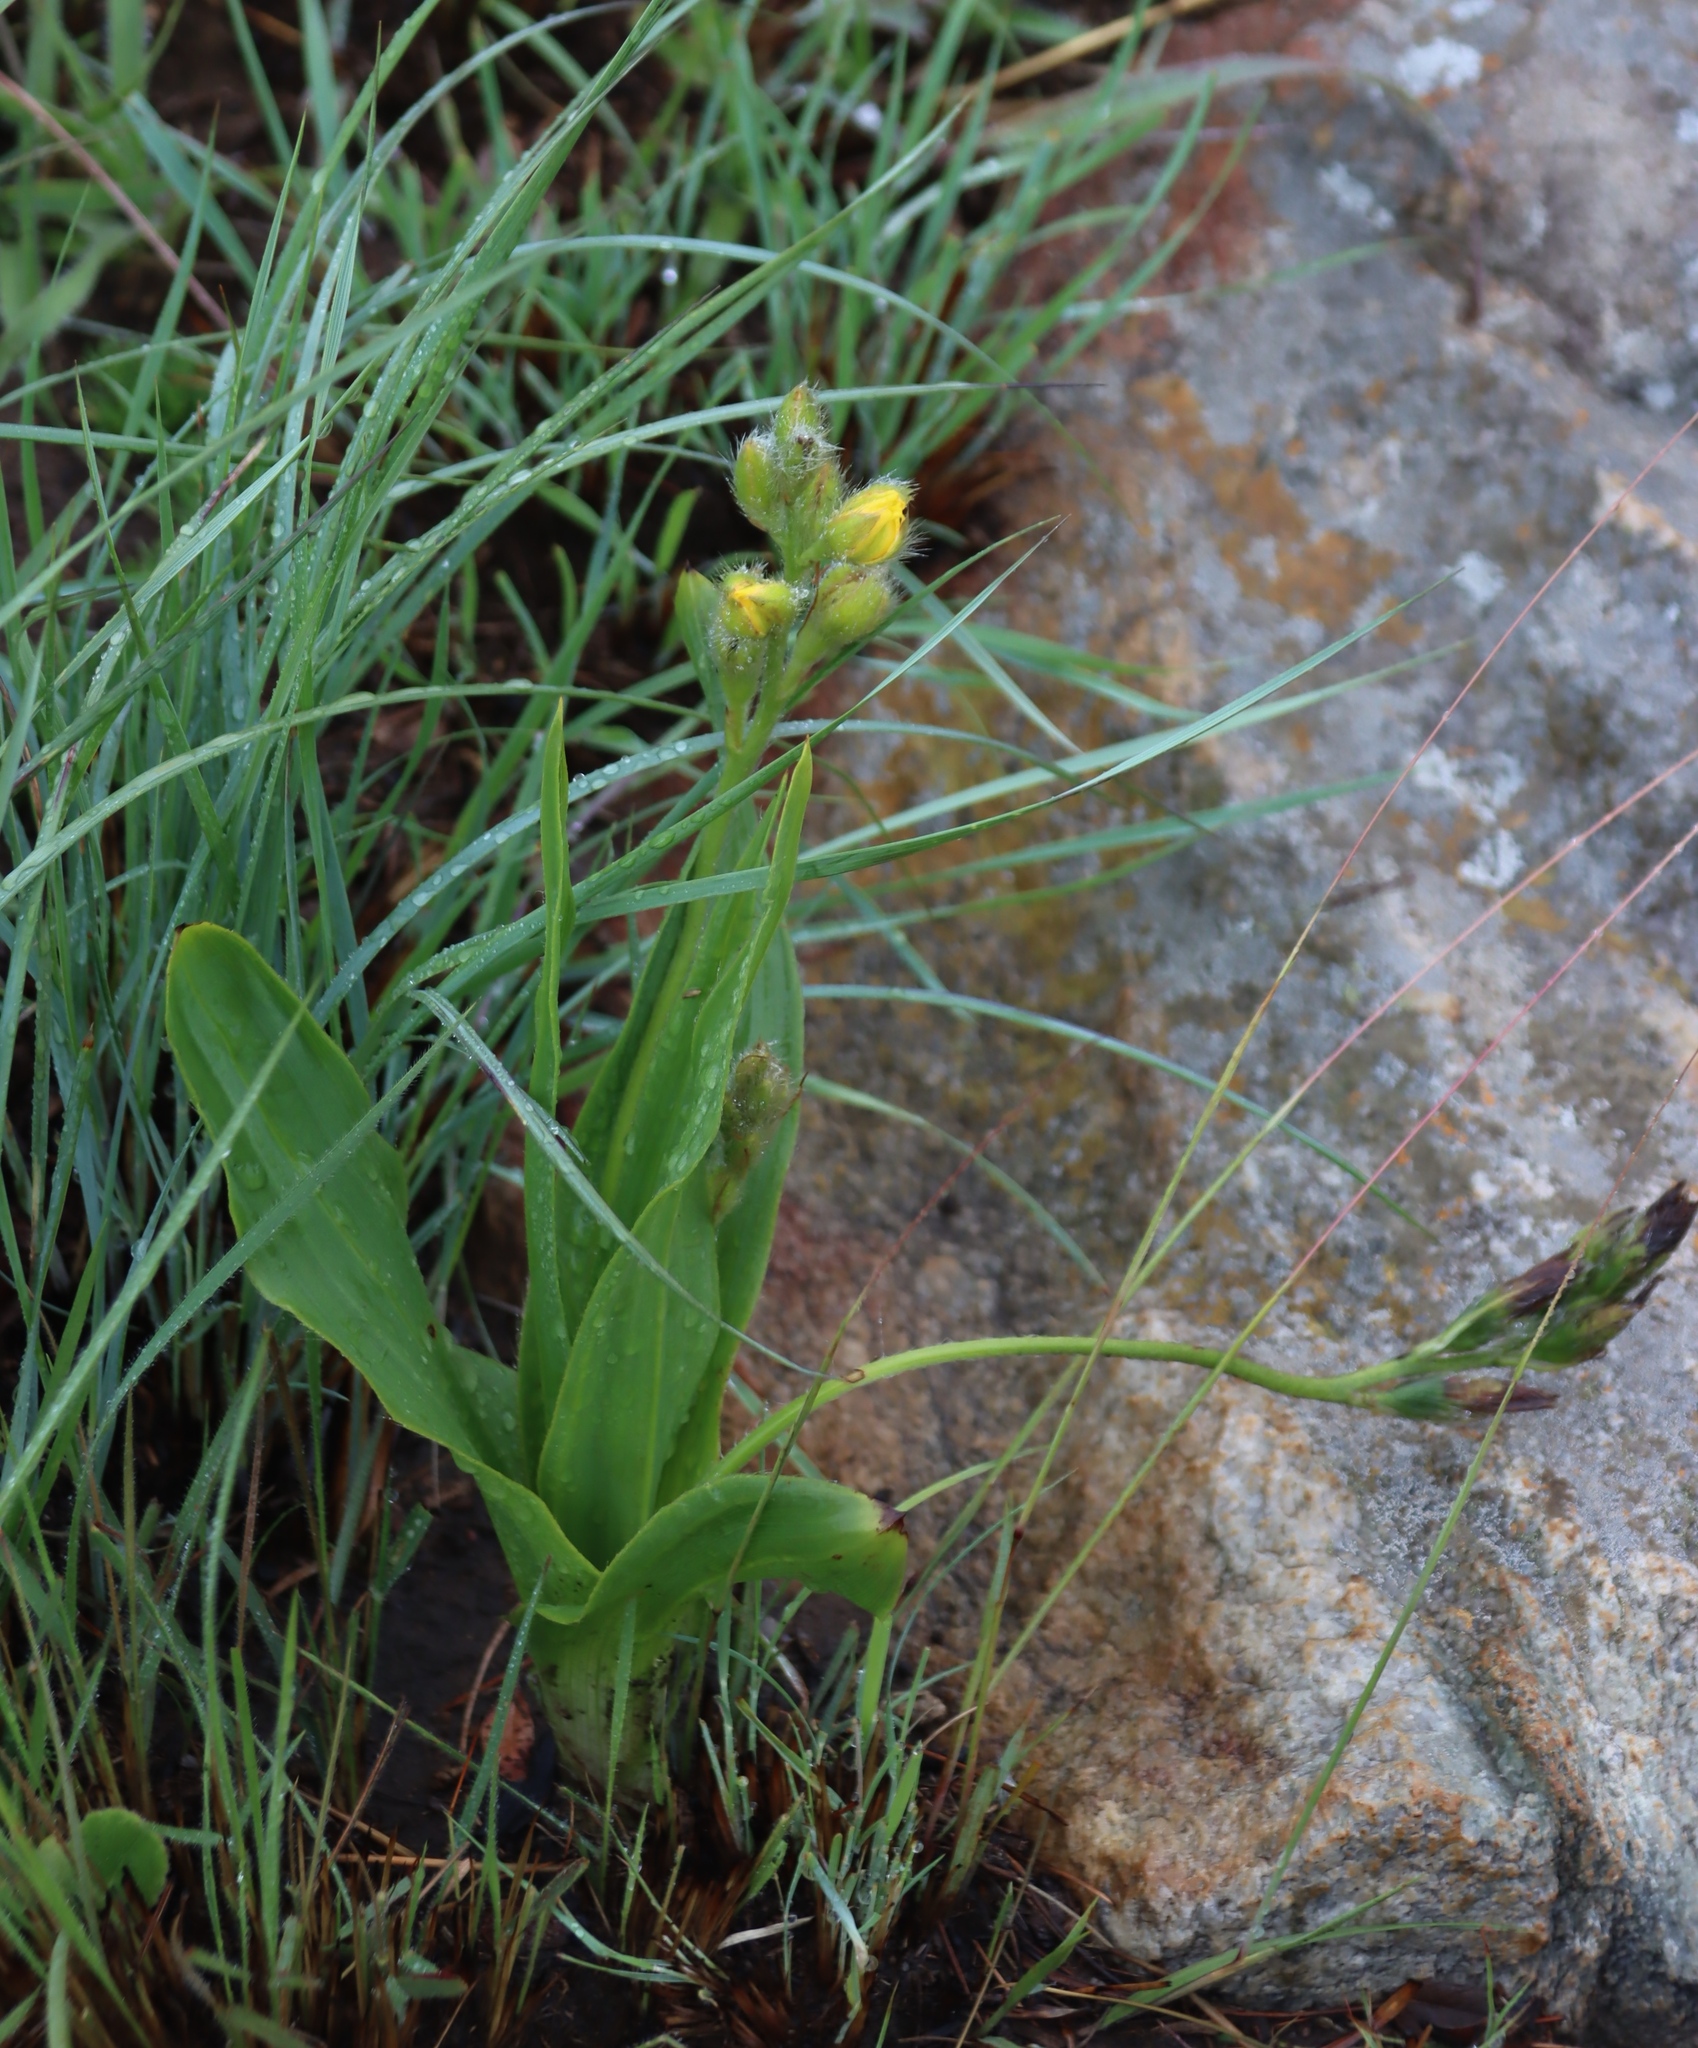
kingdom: Plantae
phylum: Tracheophyta
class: Liliopsida
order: Asparagales
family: Hypoxidaceae
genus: Hypoxis
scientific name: Hypoxis galpinii
